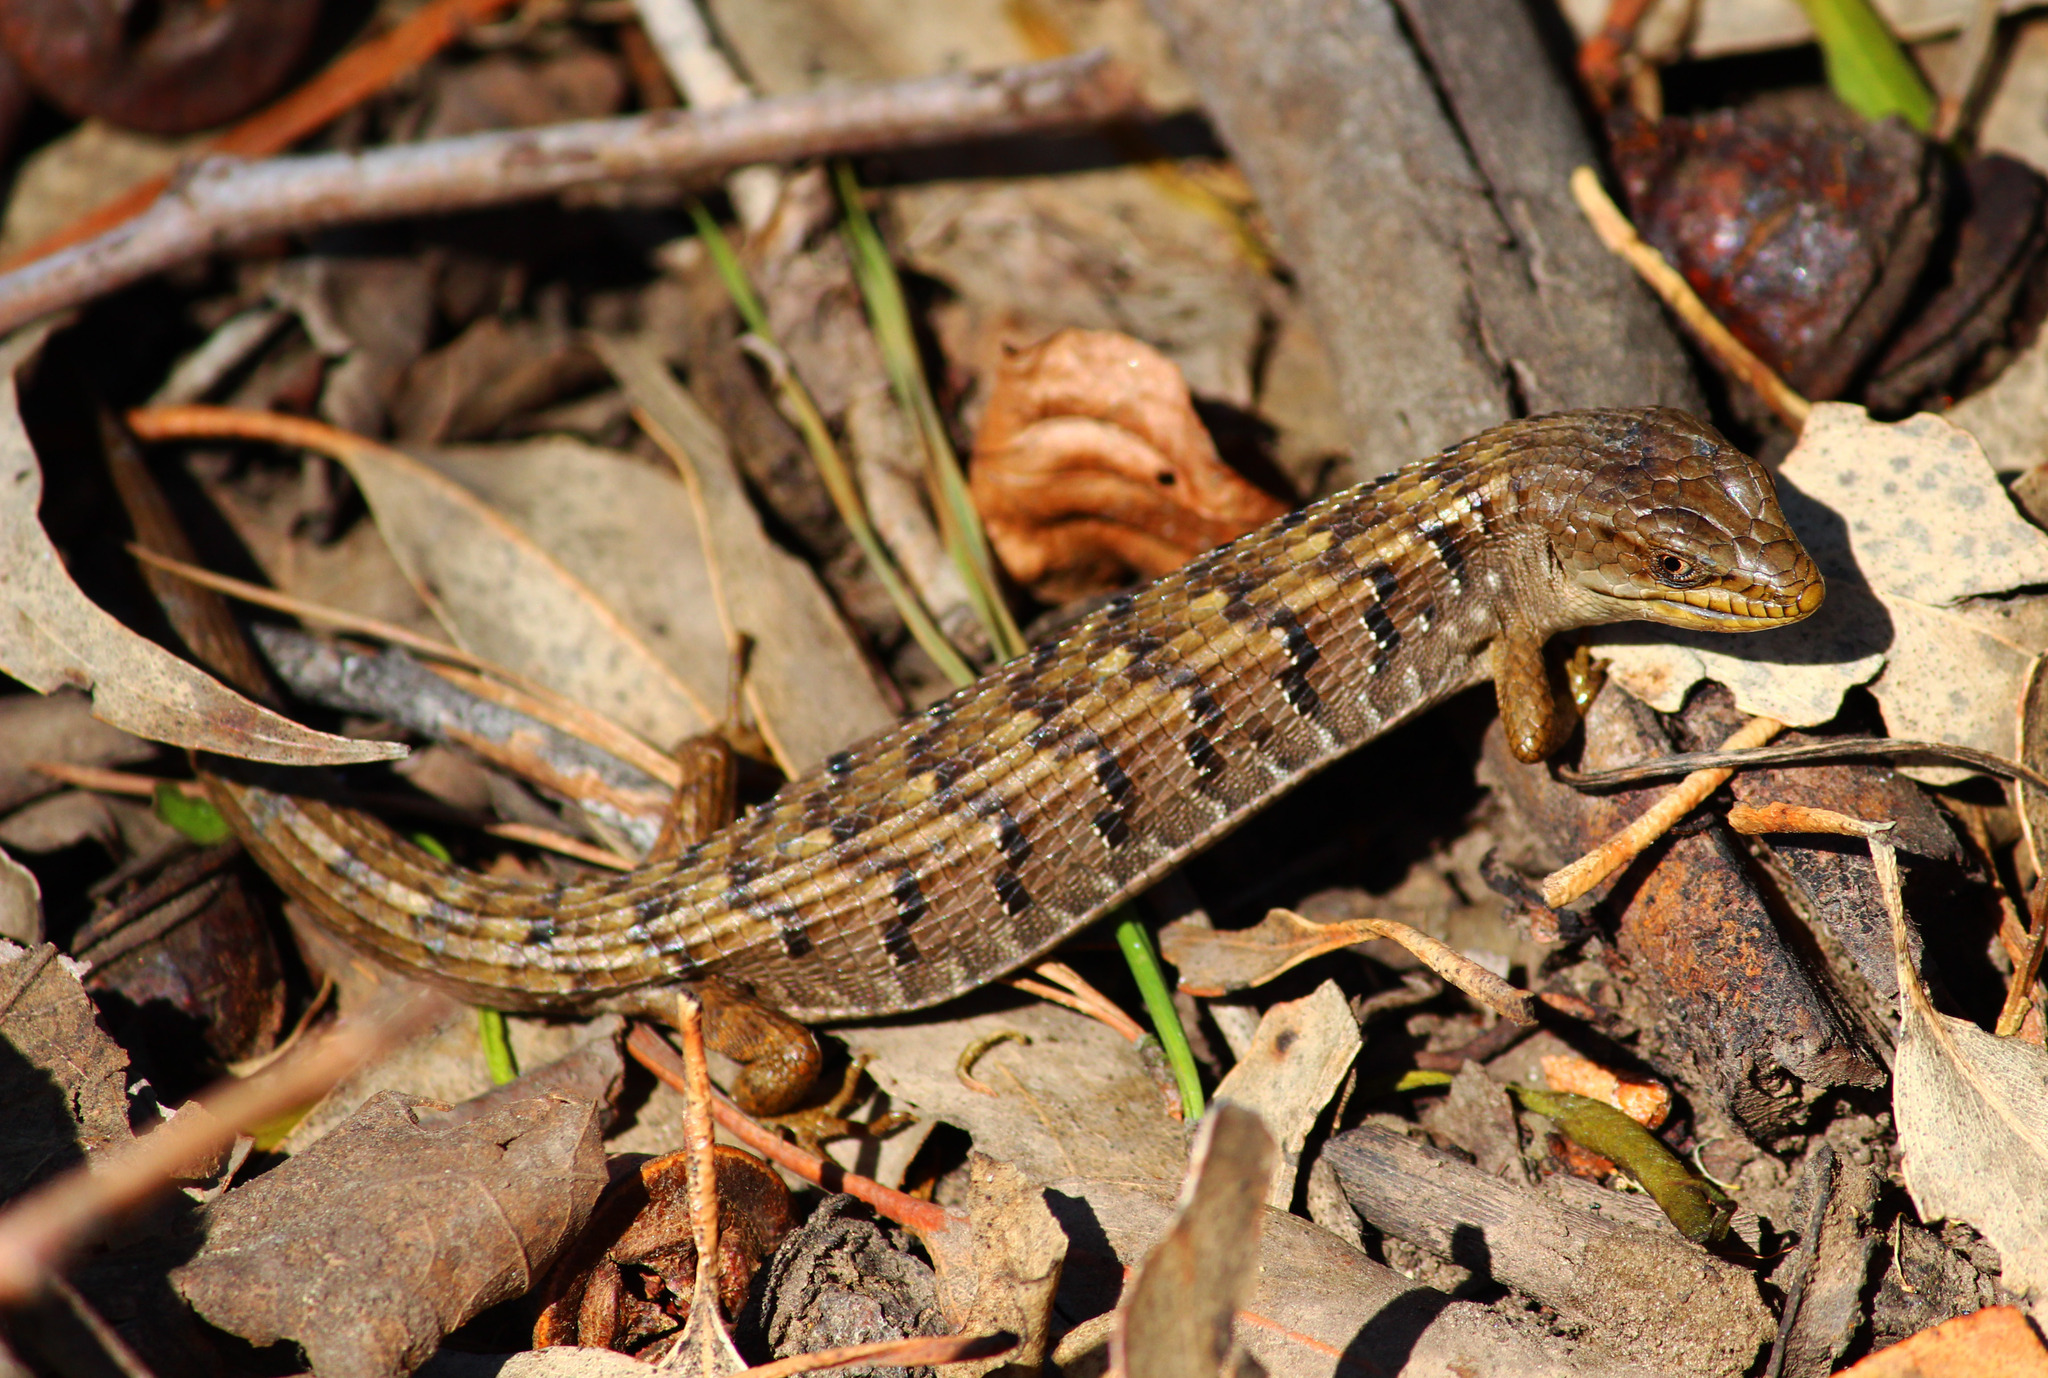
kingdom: Animalia
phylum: Chordata
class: Squamata
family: Anguidae
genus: Elgaria
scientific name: Elgaria multicarinata
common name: Southern alligator lizard
